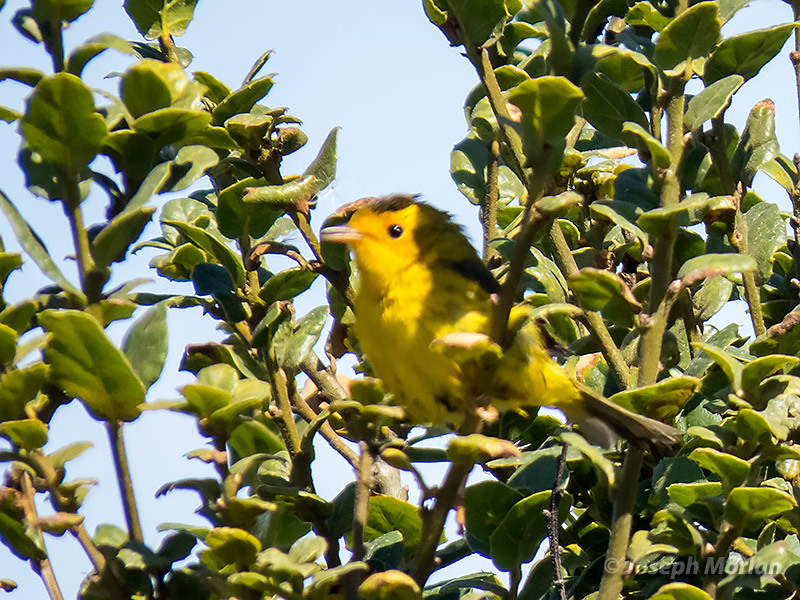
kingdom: Animalia
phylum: Chordata
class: Aves
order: Passeriformes
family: Parulidae
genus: Cardellina
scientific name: Cardellina pusilla
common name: Wilson's warbler
